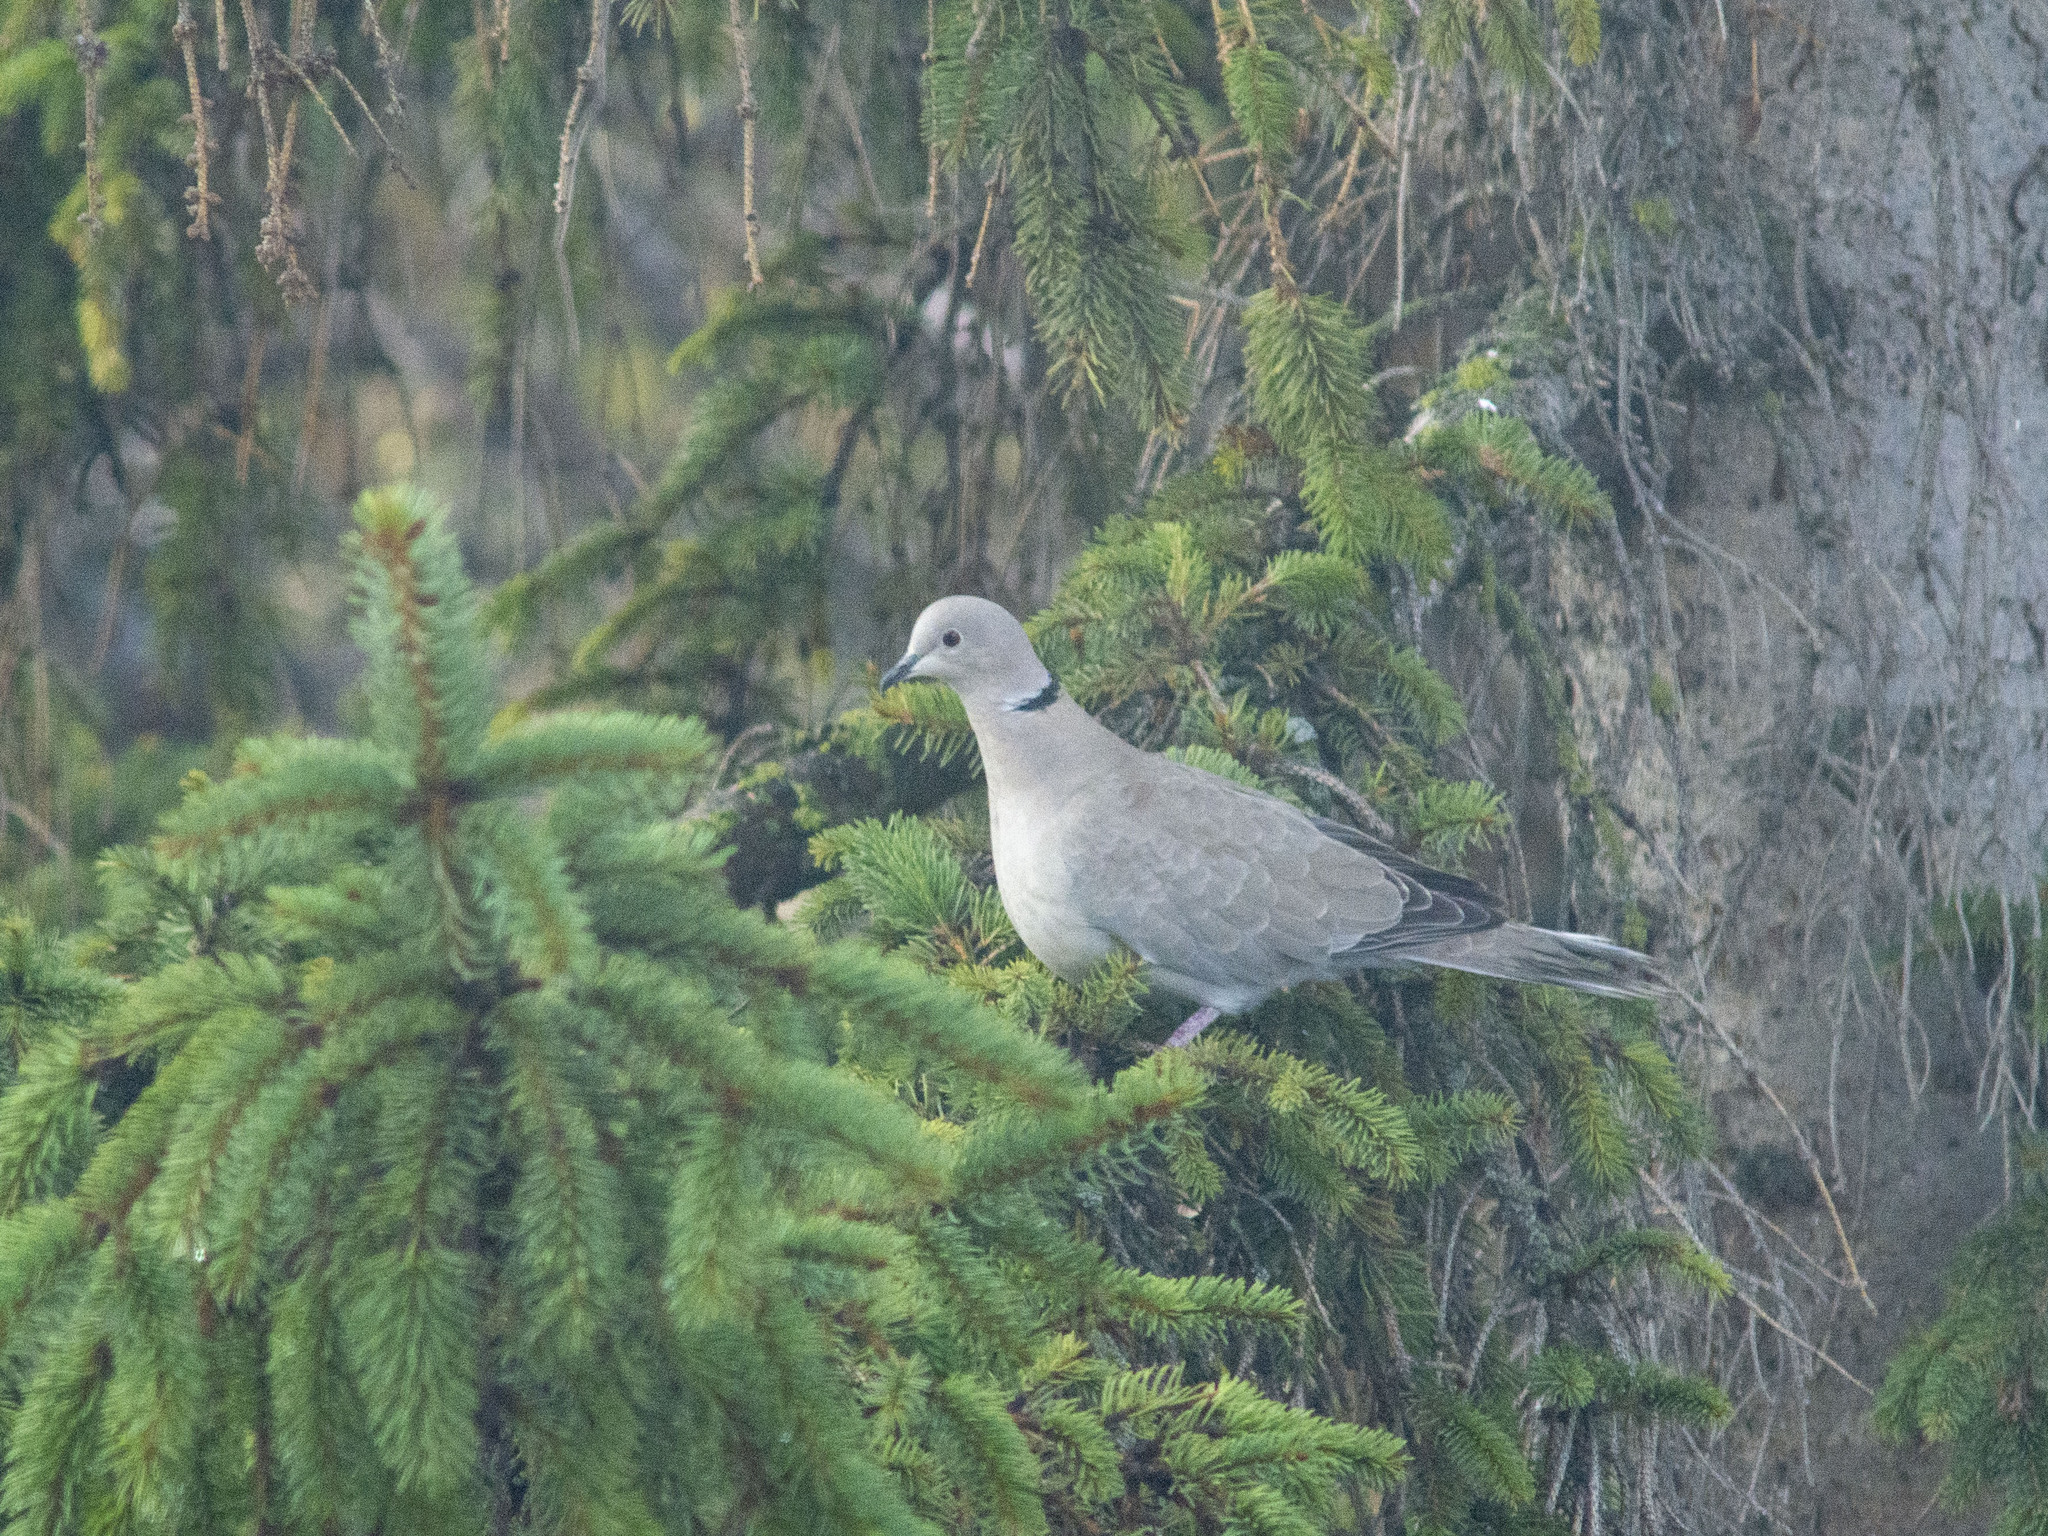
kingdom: Animalia
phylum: Chordata
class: Aves
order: Columbiformes
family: Columbidae
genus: Streptopelia
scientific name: Streptopelia decaocto
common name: Eurasian collared dove
